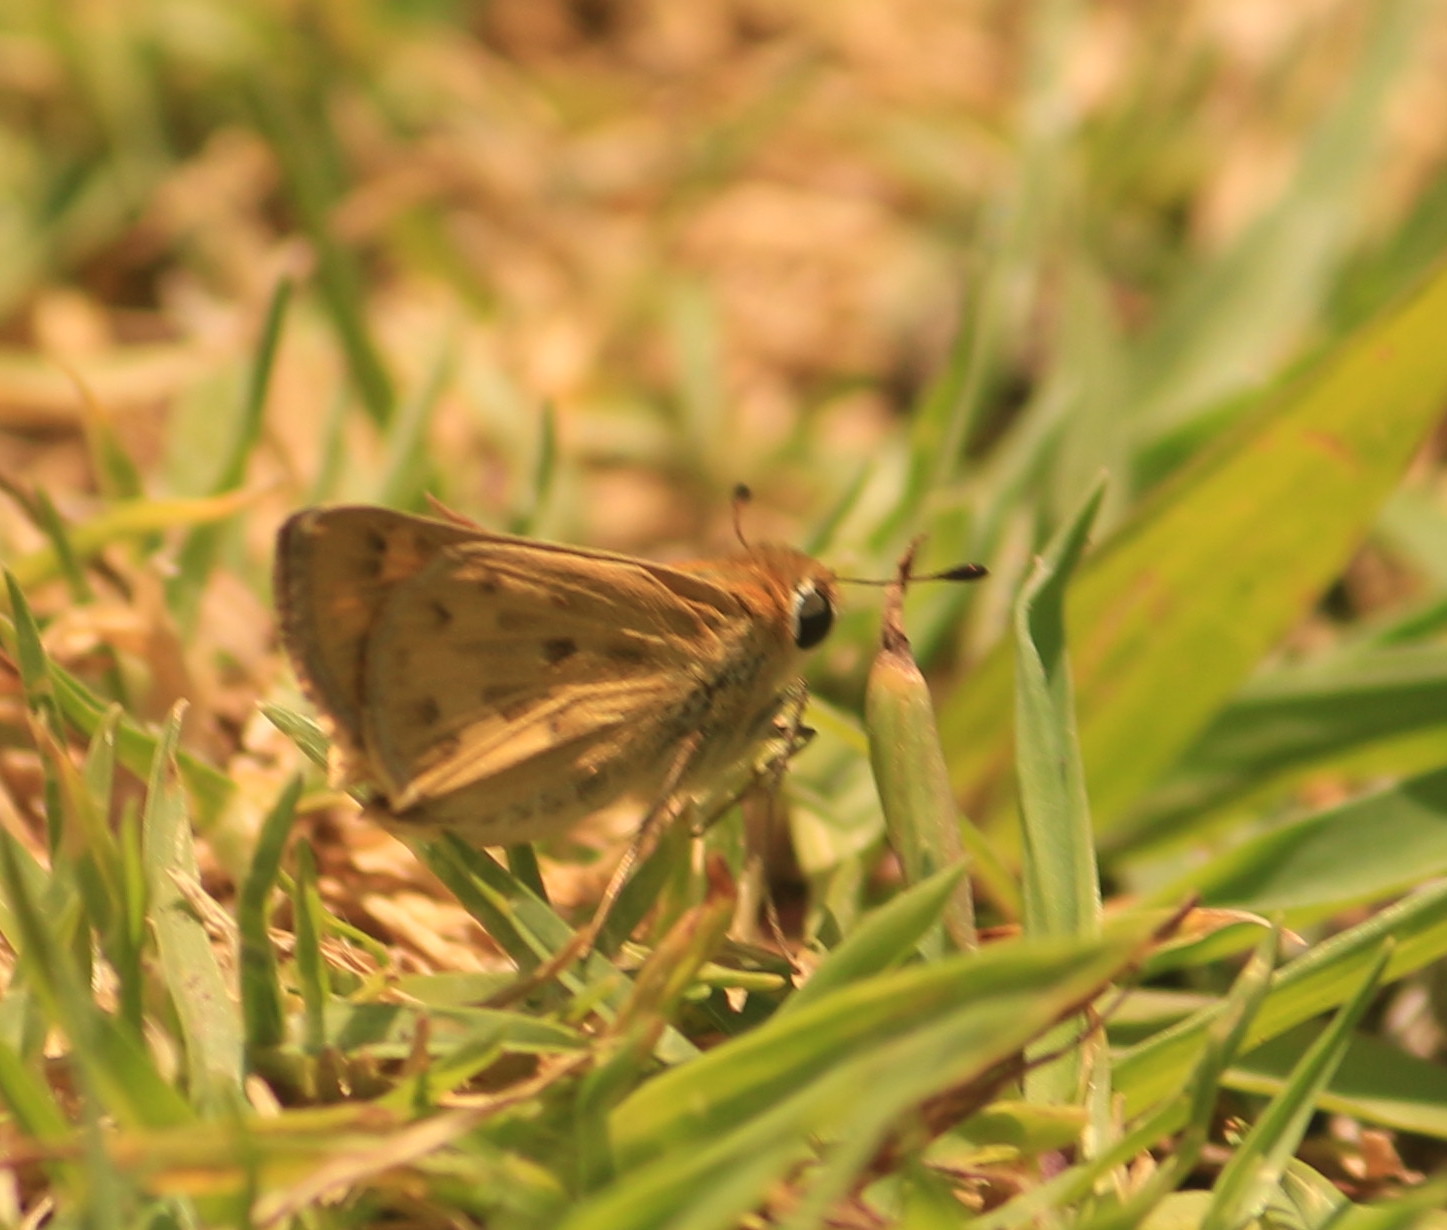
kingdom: Animalia
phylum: Arthropoda
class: Insecta
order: Lepidoptera
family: Hesperiidae
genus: Hylephila
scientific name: Hylephila phyleus
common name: Fiery skipper
